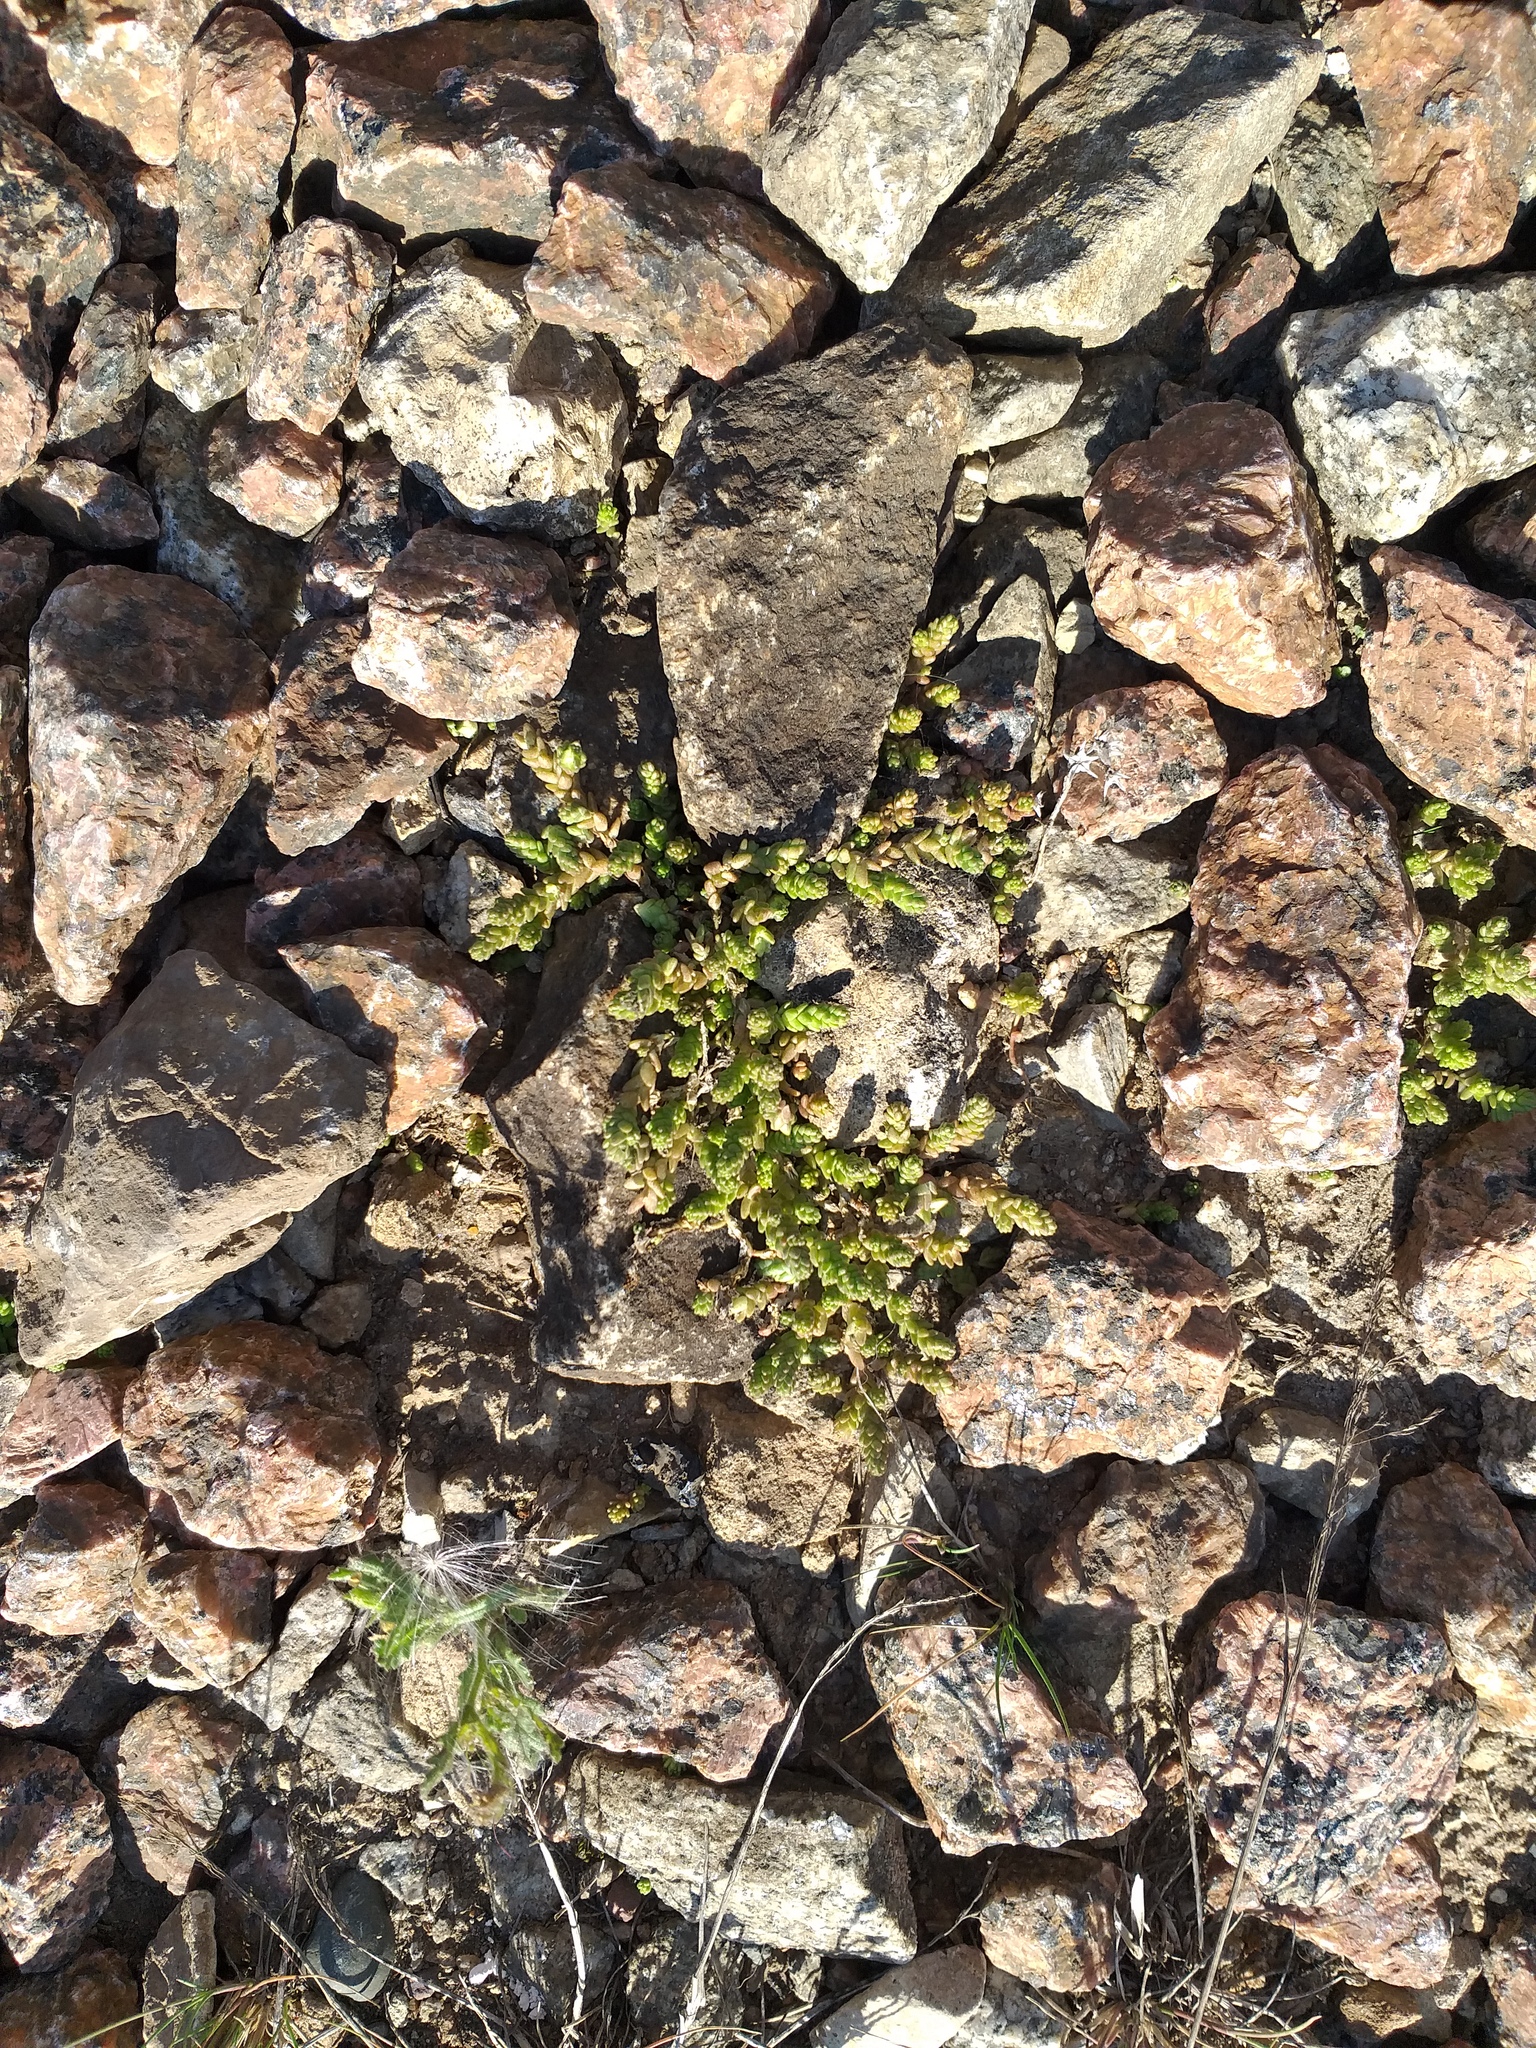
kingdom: Plantae
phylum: Tracheophyta
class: Magnoliopsida
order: Saxifragales
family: Crassulaceae
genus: Sedum
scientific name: Sedum acre
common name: Biting stonecrop
